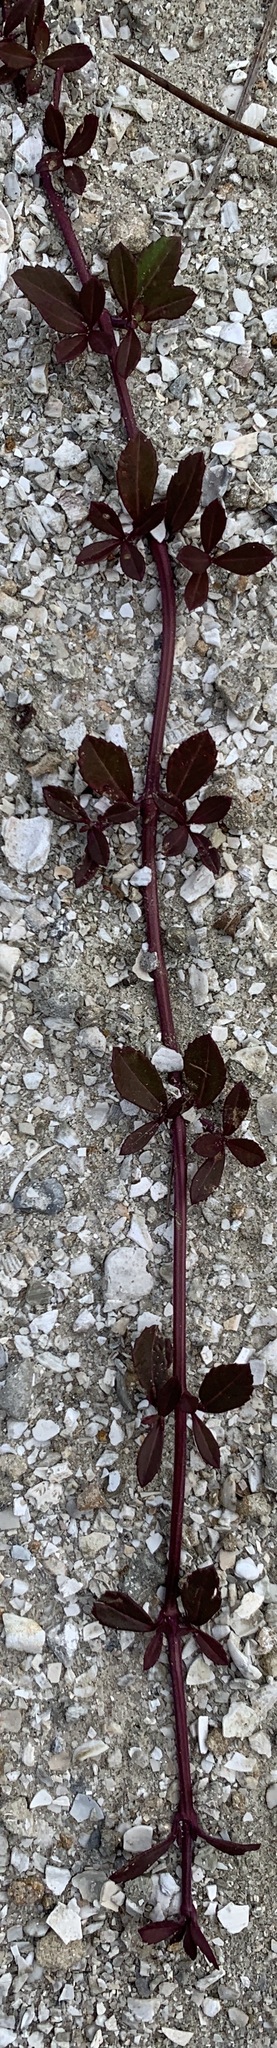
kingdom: Plantae
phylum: Tracheophyta
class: Magnoliopsida
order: Lamiales
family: Verbenaceae
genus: Phyla
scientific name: Phyla nodiflora
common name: Frogfruit
